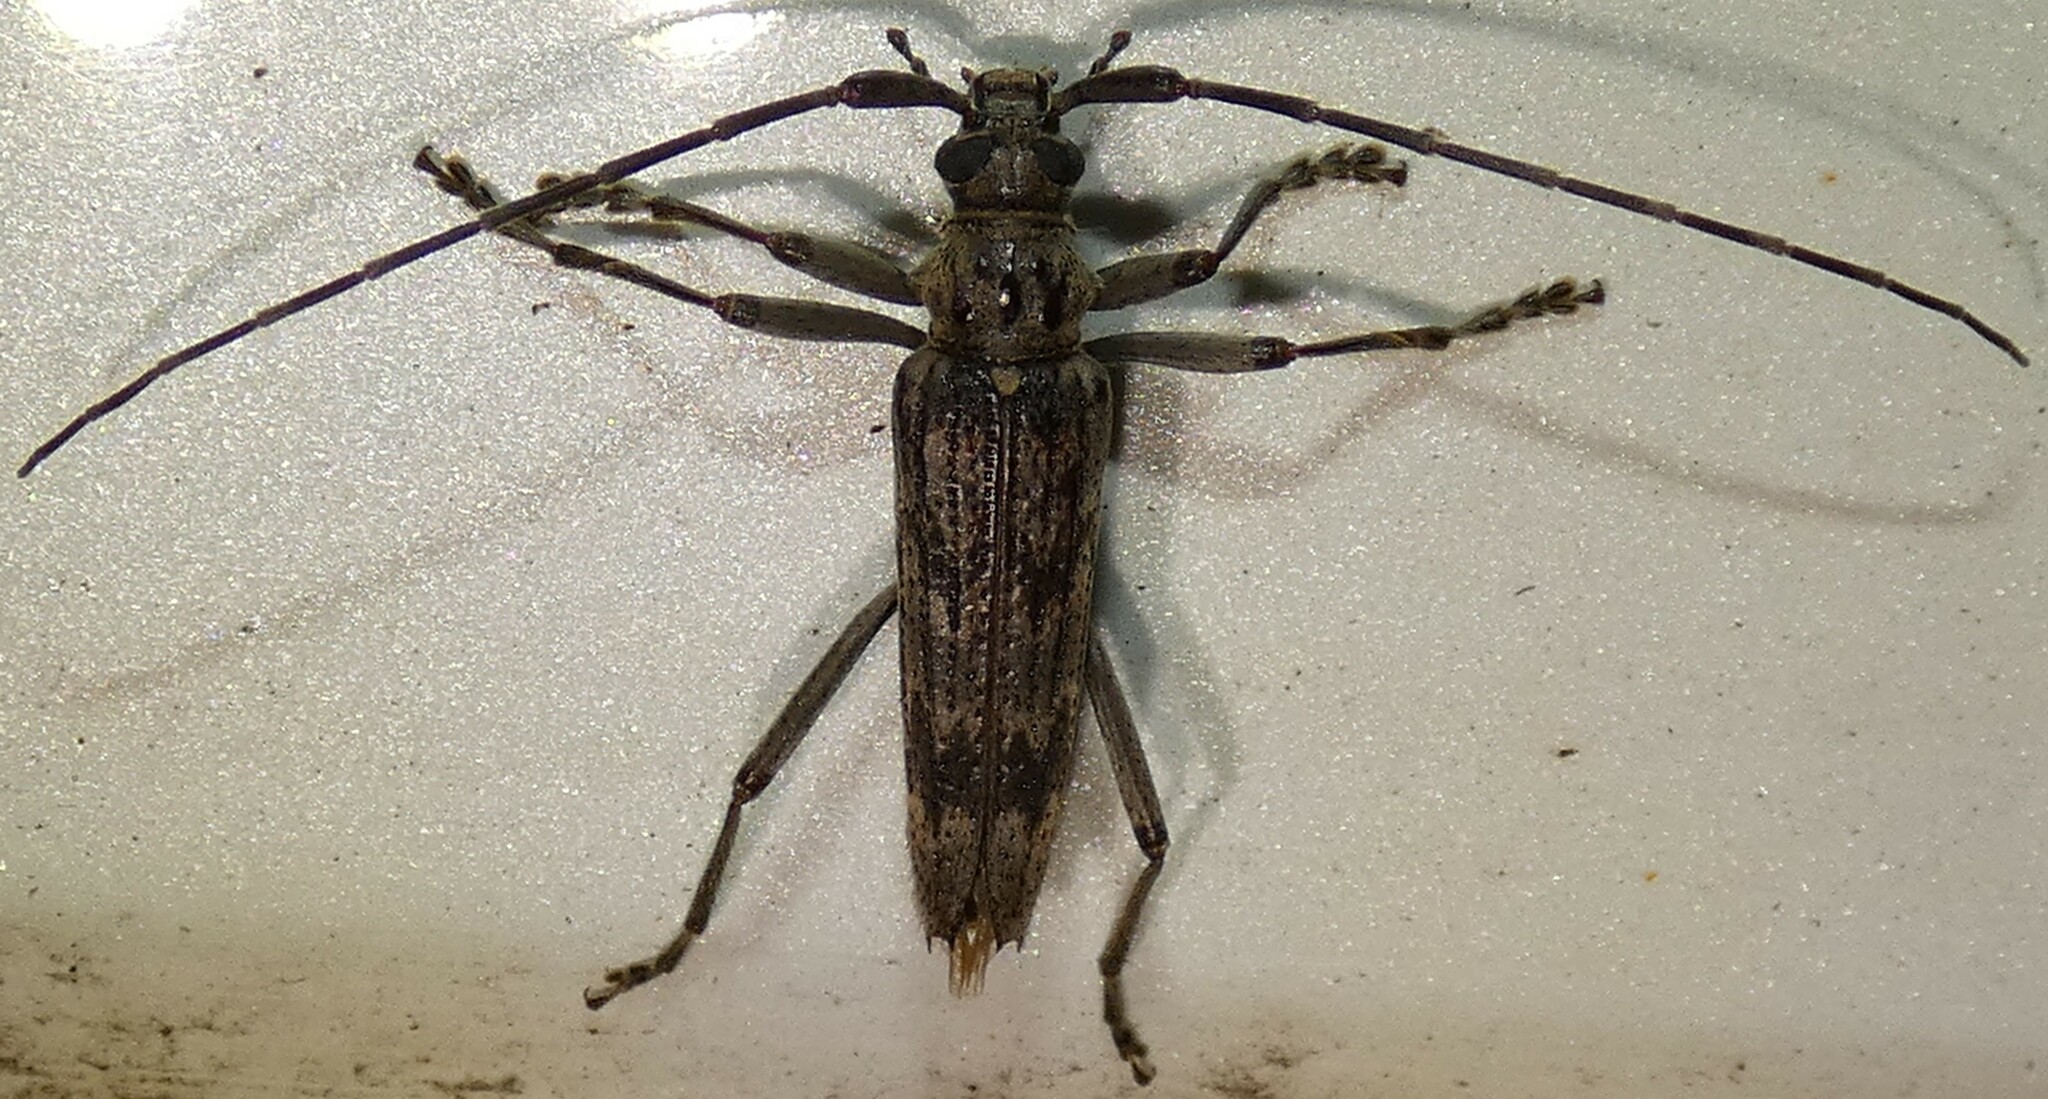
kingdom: Animalia
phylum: Arthropoda
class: Insecta
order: Coleoptera
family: Cerambycidae
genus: Elytrimitatrix
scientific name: Elytrimitatrix undata
